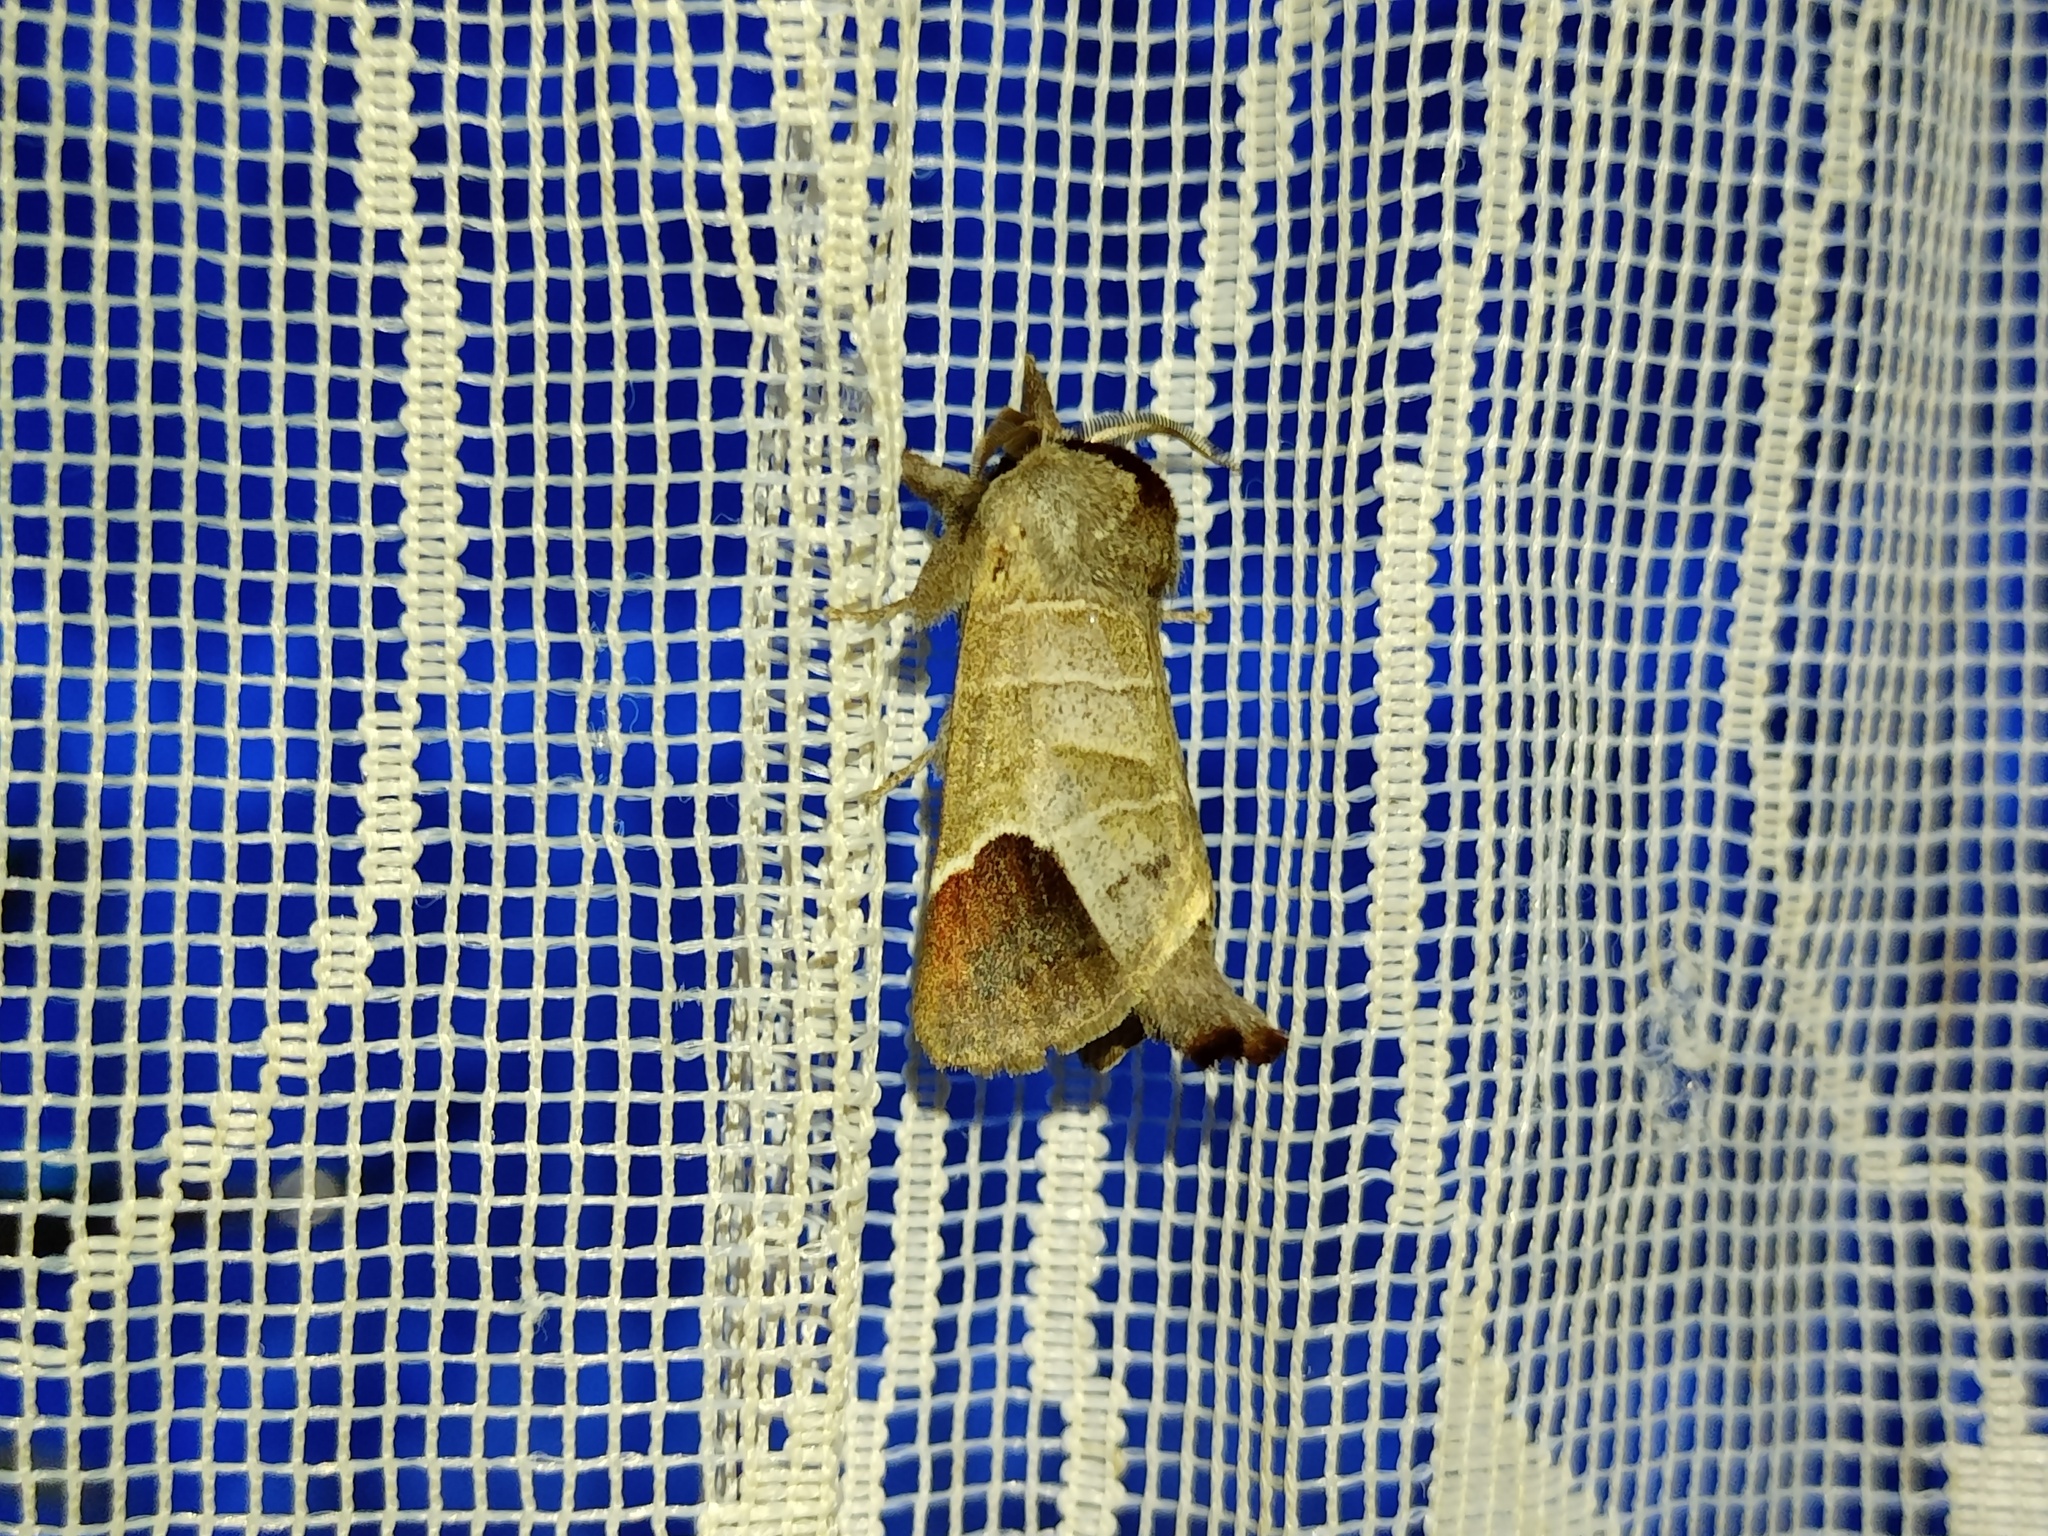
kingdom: Animalia
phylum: Arthropoda
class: Insecta
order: Lepidoptera
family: Notodontidae
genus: Clostera
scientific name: Clostera curtula
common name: Chocolate-tip
